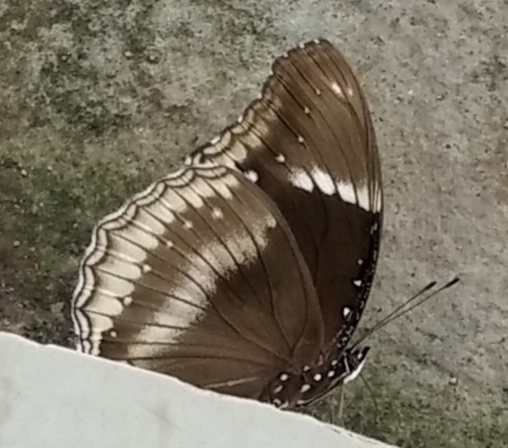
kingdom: Animalia
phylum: Arthropoda
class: Insecta
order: Lepidoptera
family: Nymphalidae
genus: Hypolimnas
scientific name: Hypolimnas bolina
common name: Great eggfly
